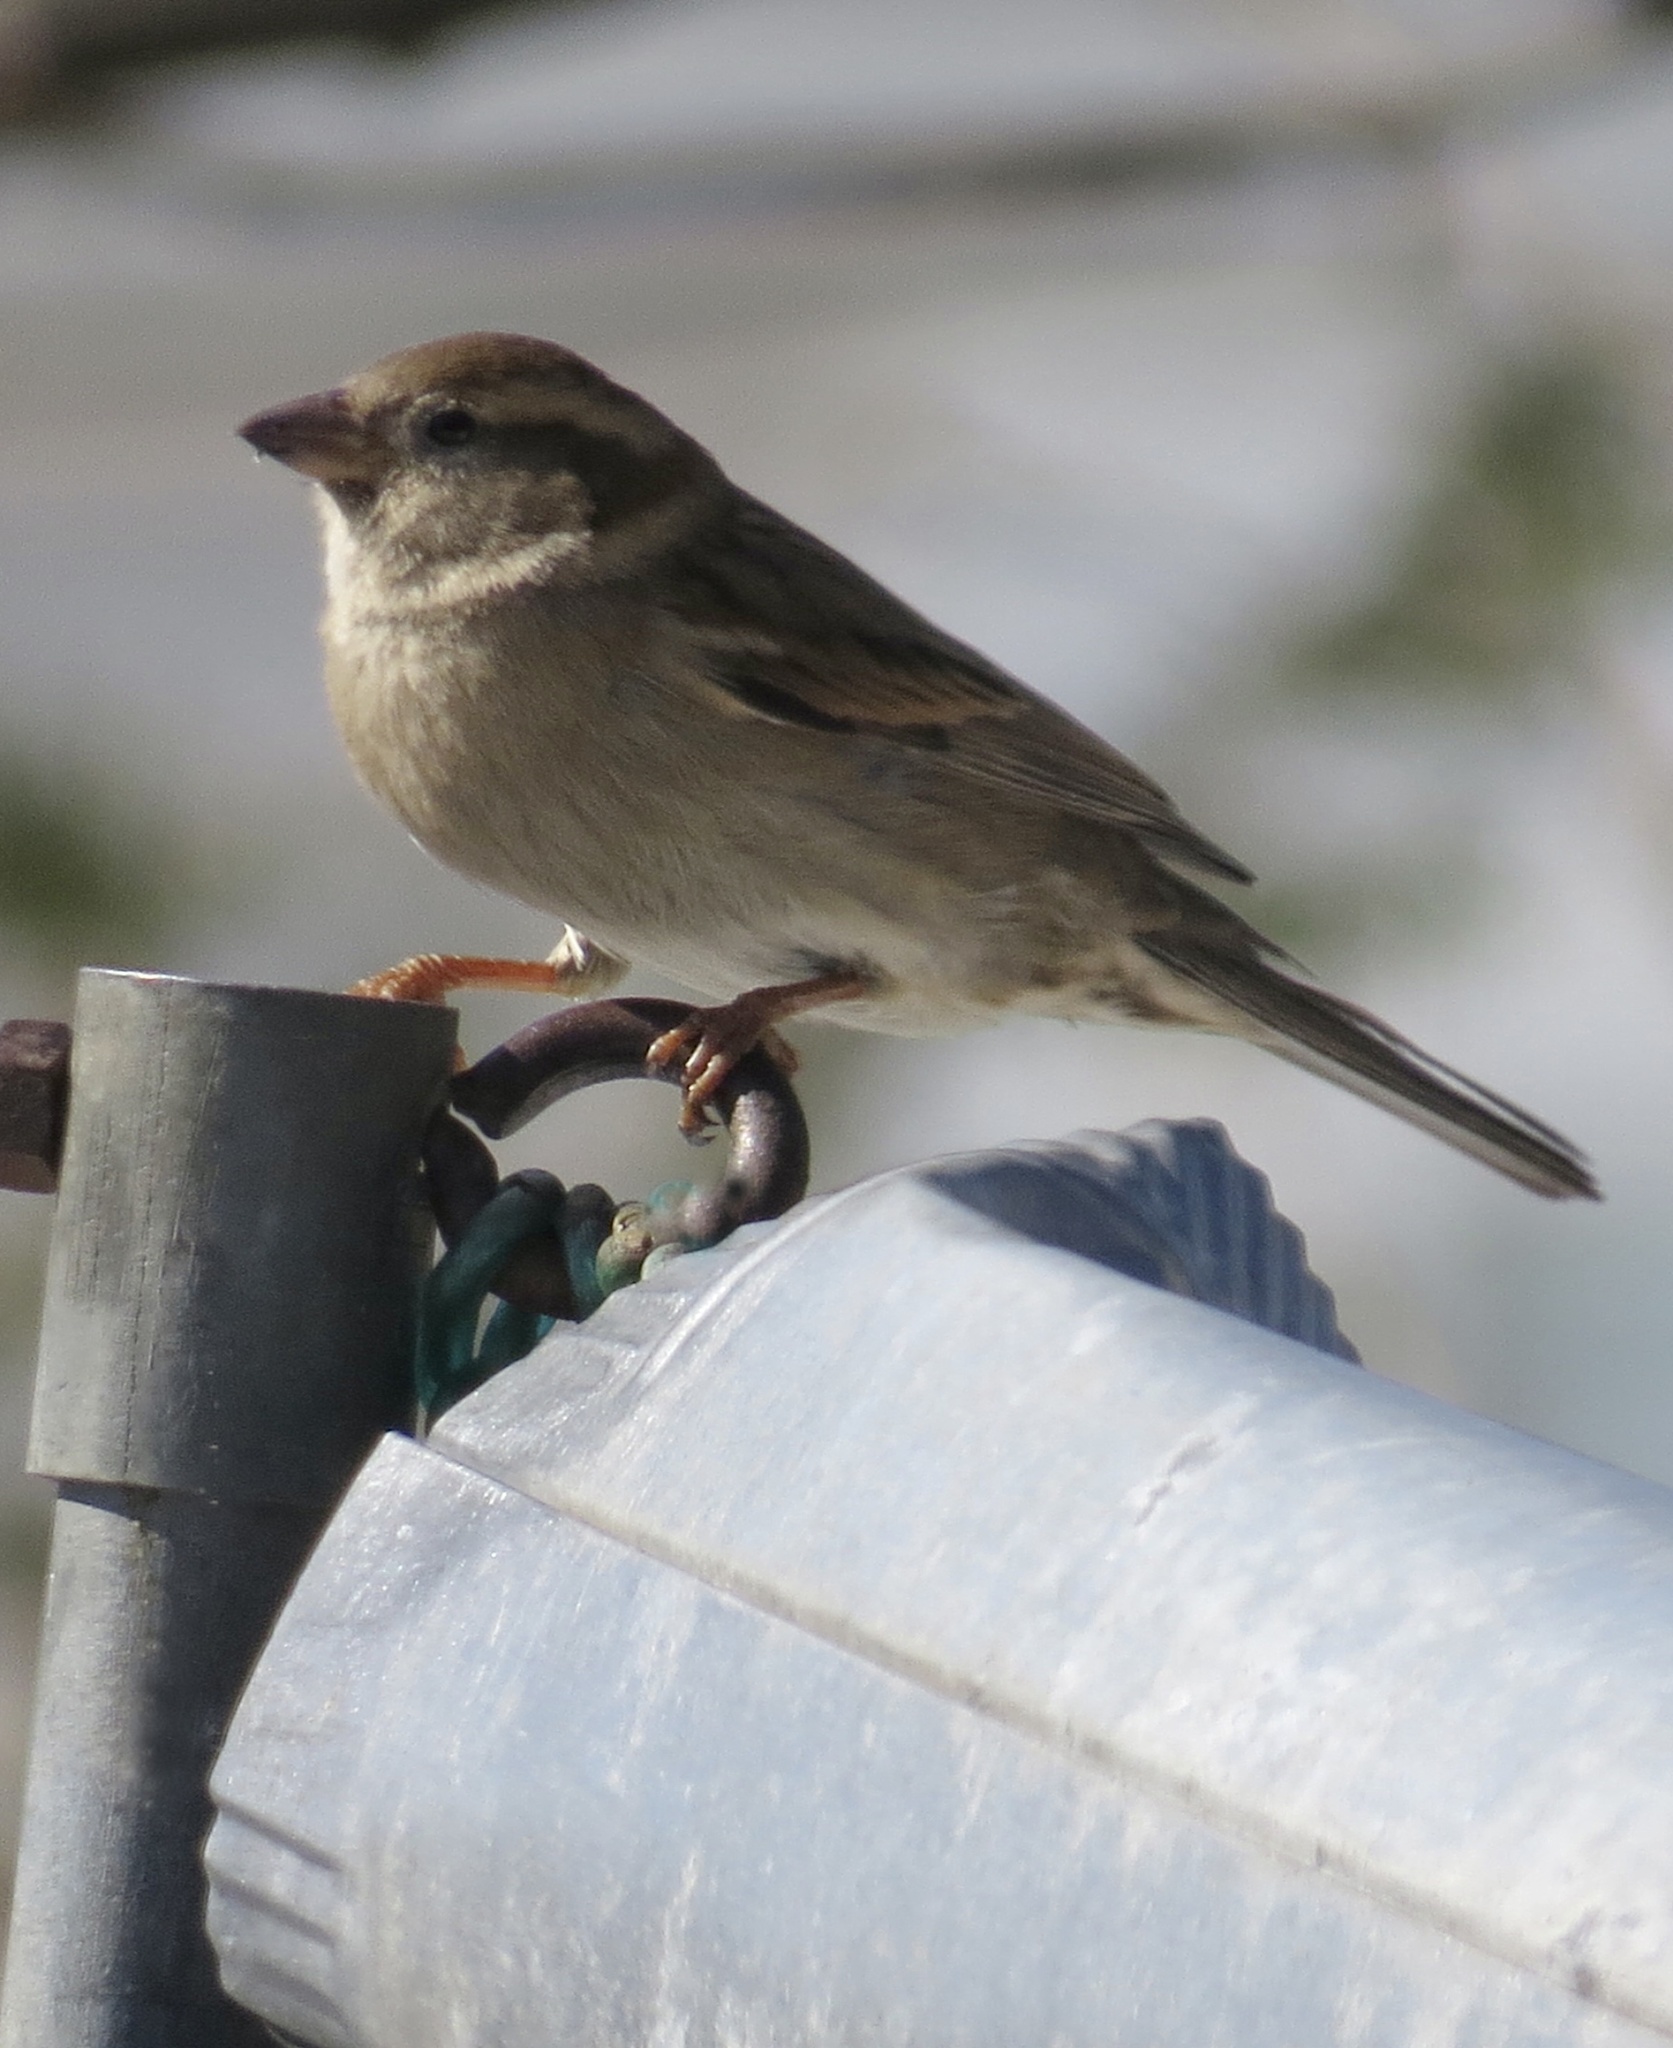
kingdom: Animalia
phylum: Chordata
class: Aves
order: Passeriformes
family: Passeridae
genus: Passer
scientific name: Passer domesticus
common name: House sparrow
